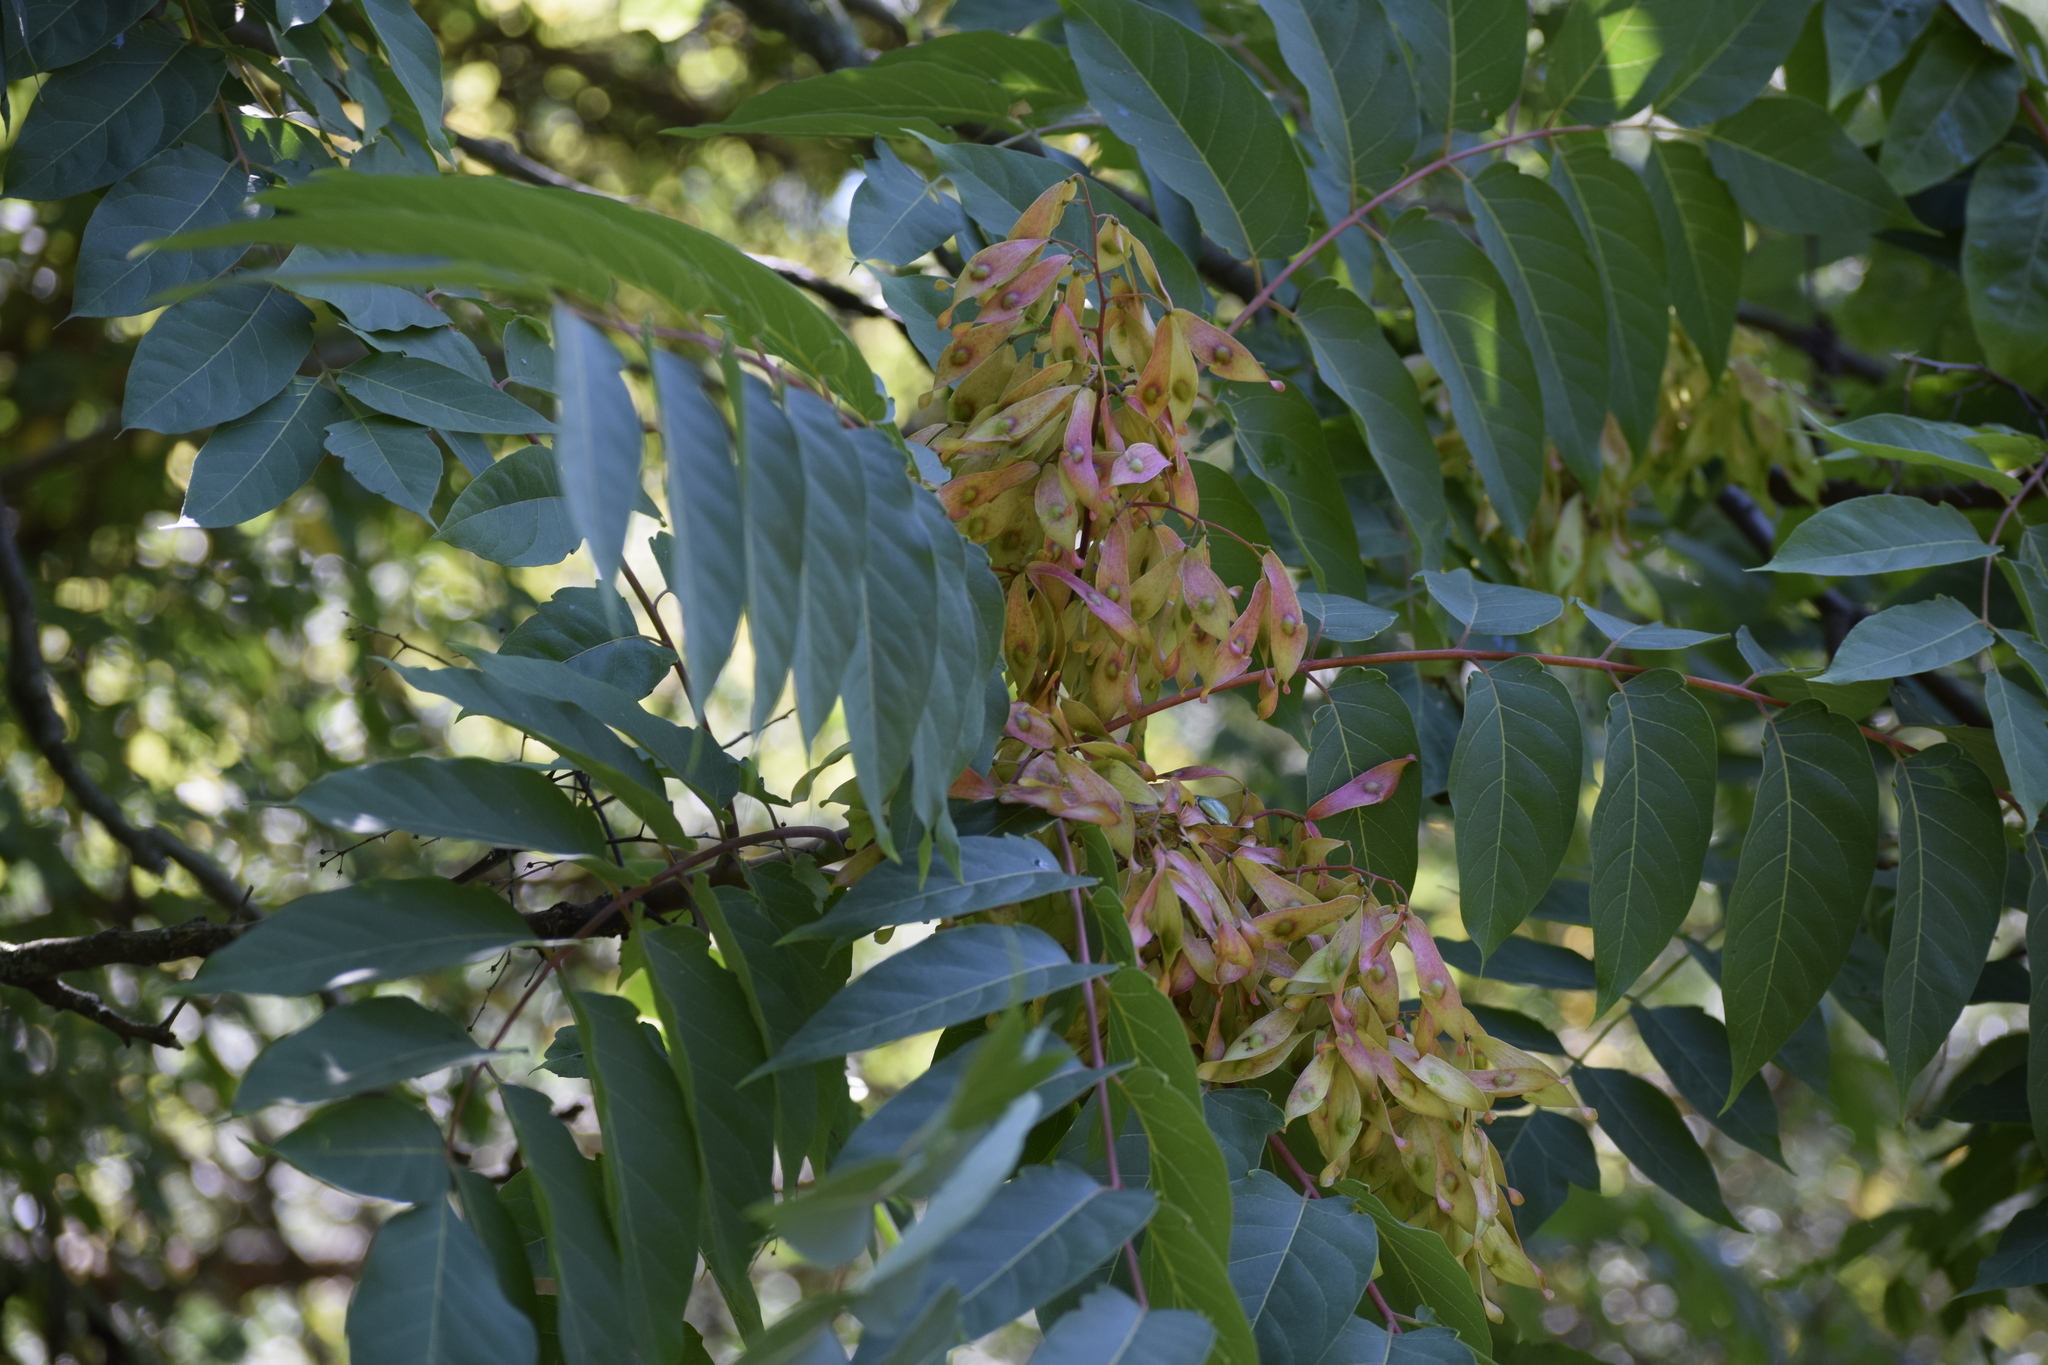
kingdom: Plantae
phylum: Tracheophyta
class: Magnoliopsida
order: Sapindales
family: Simaroubaceae
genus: Ailanthus
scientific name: Ailanthus altissima
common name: Tree-of-heaven
